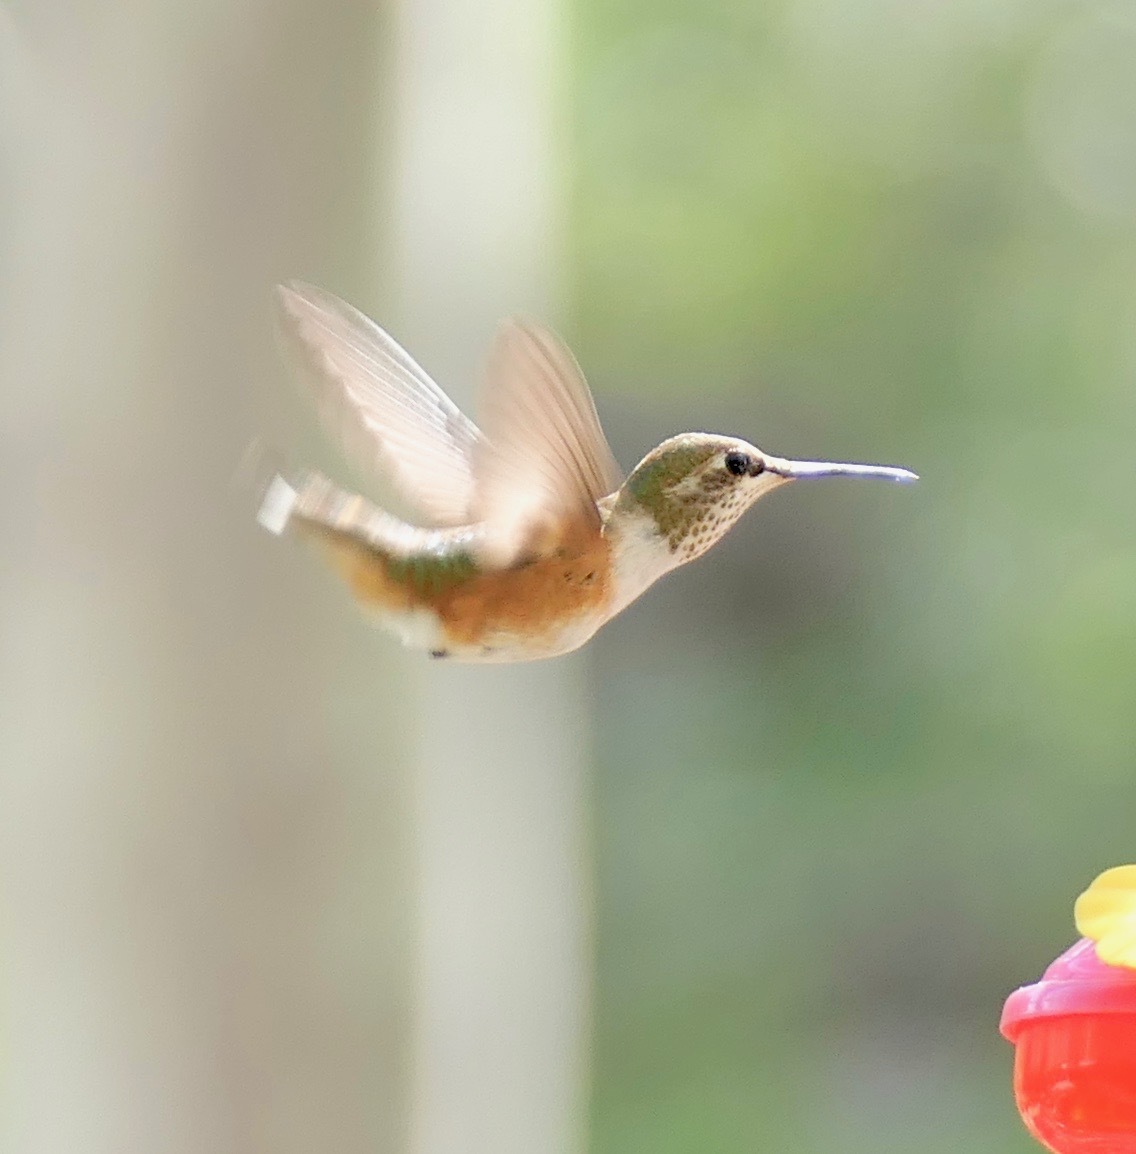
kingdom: Animalia
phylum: Chordata
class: Aves
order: Apodiformes
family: Trochilidae
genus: Selasphorus
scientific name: Selasphorus rufus
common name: Rufous hummingbird
